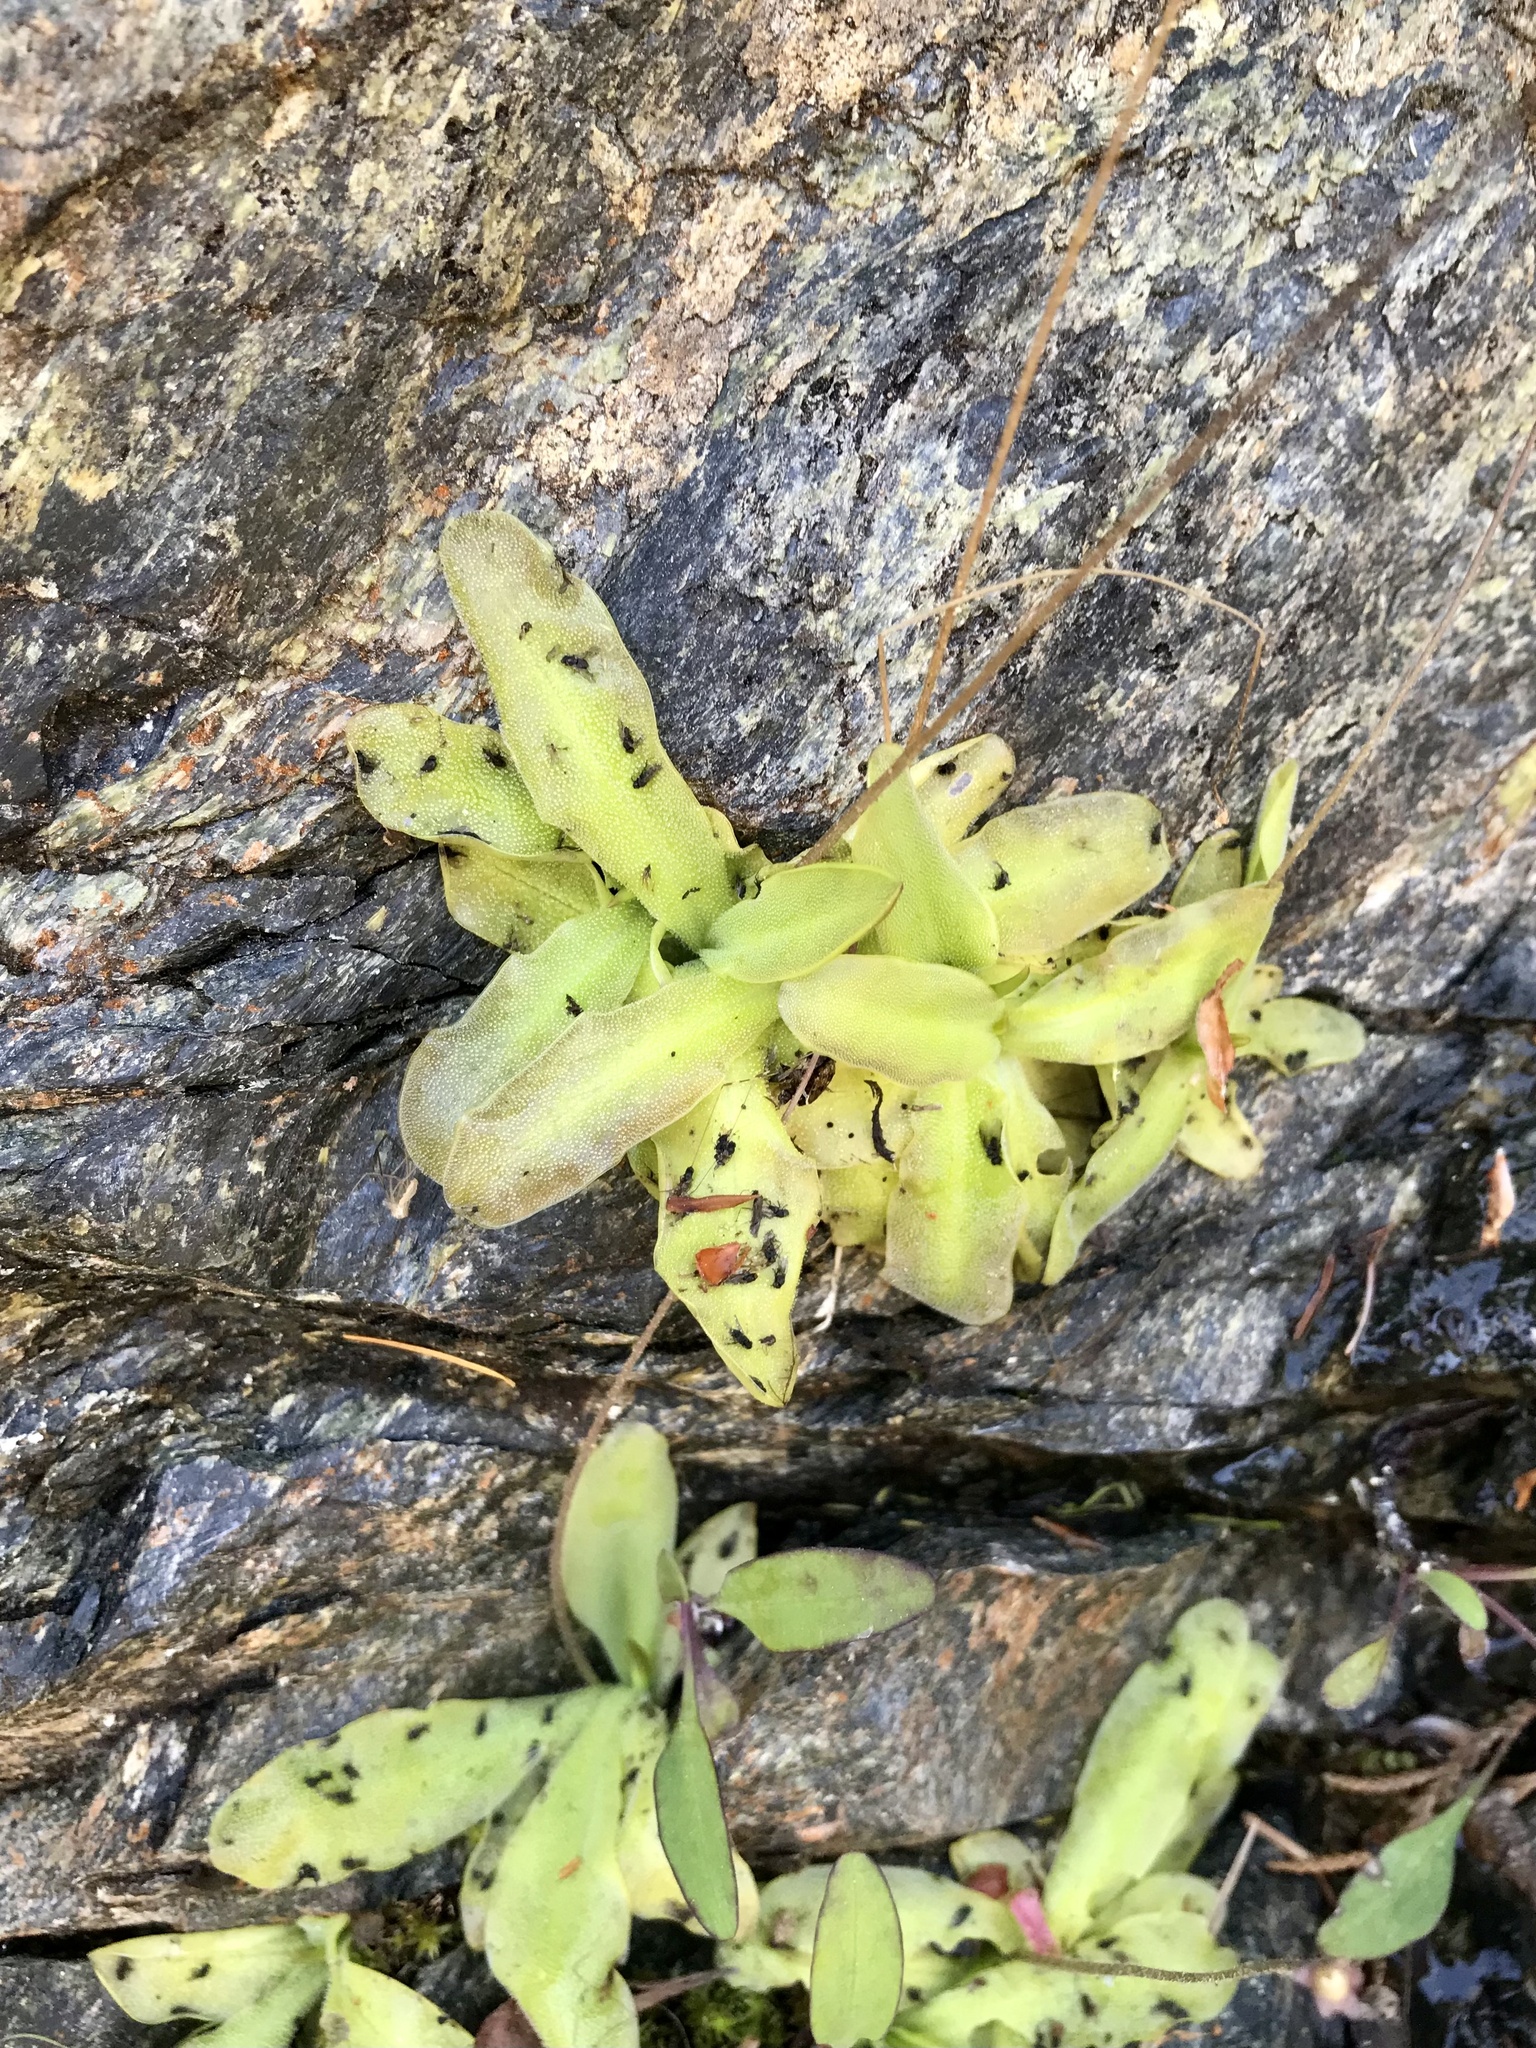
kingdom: Plantae
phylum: Tracheophyta
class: Magnoliopsida
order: Lamiales
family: Lentibulariaceae
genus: Pinguicula
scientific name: Pinguicula macroceras
